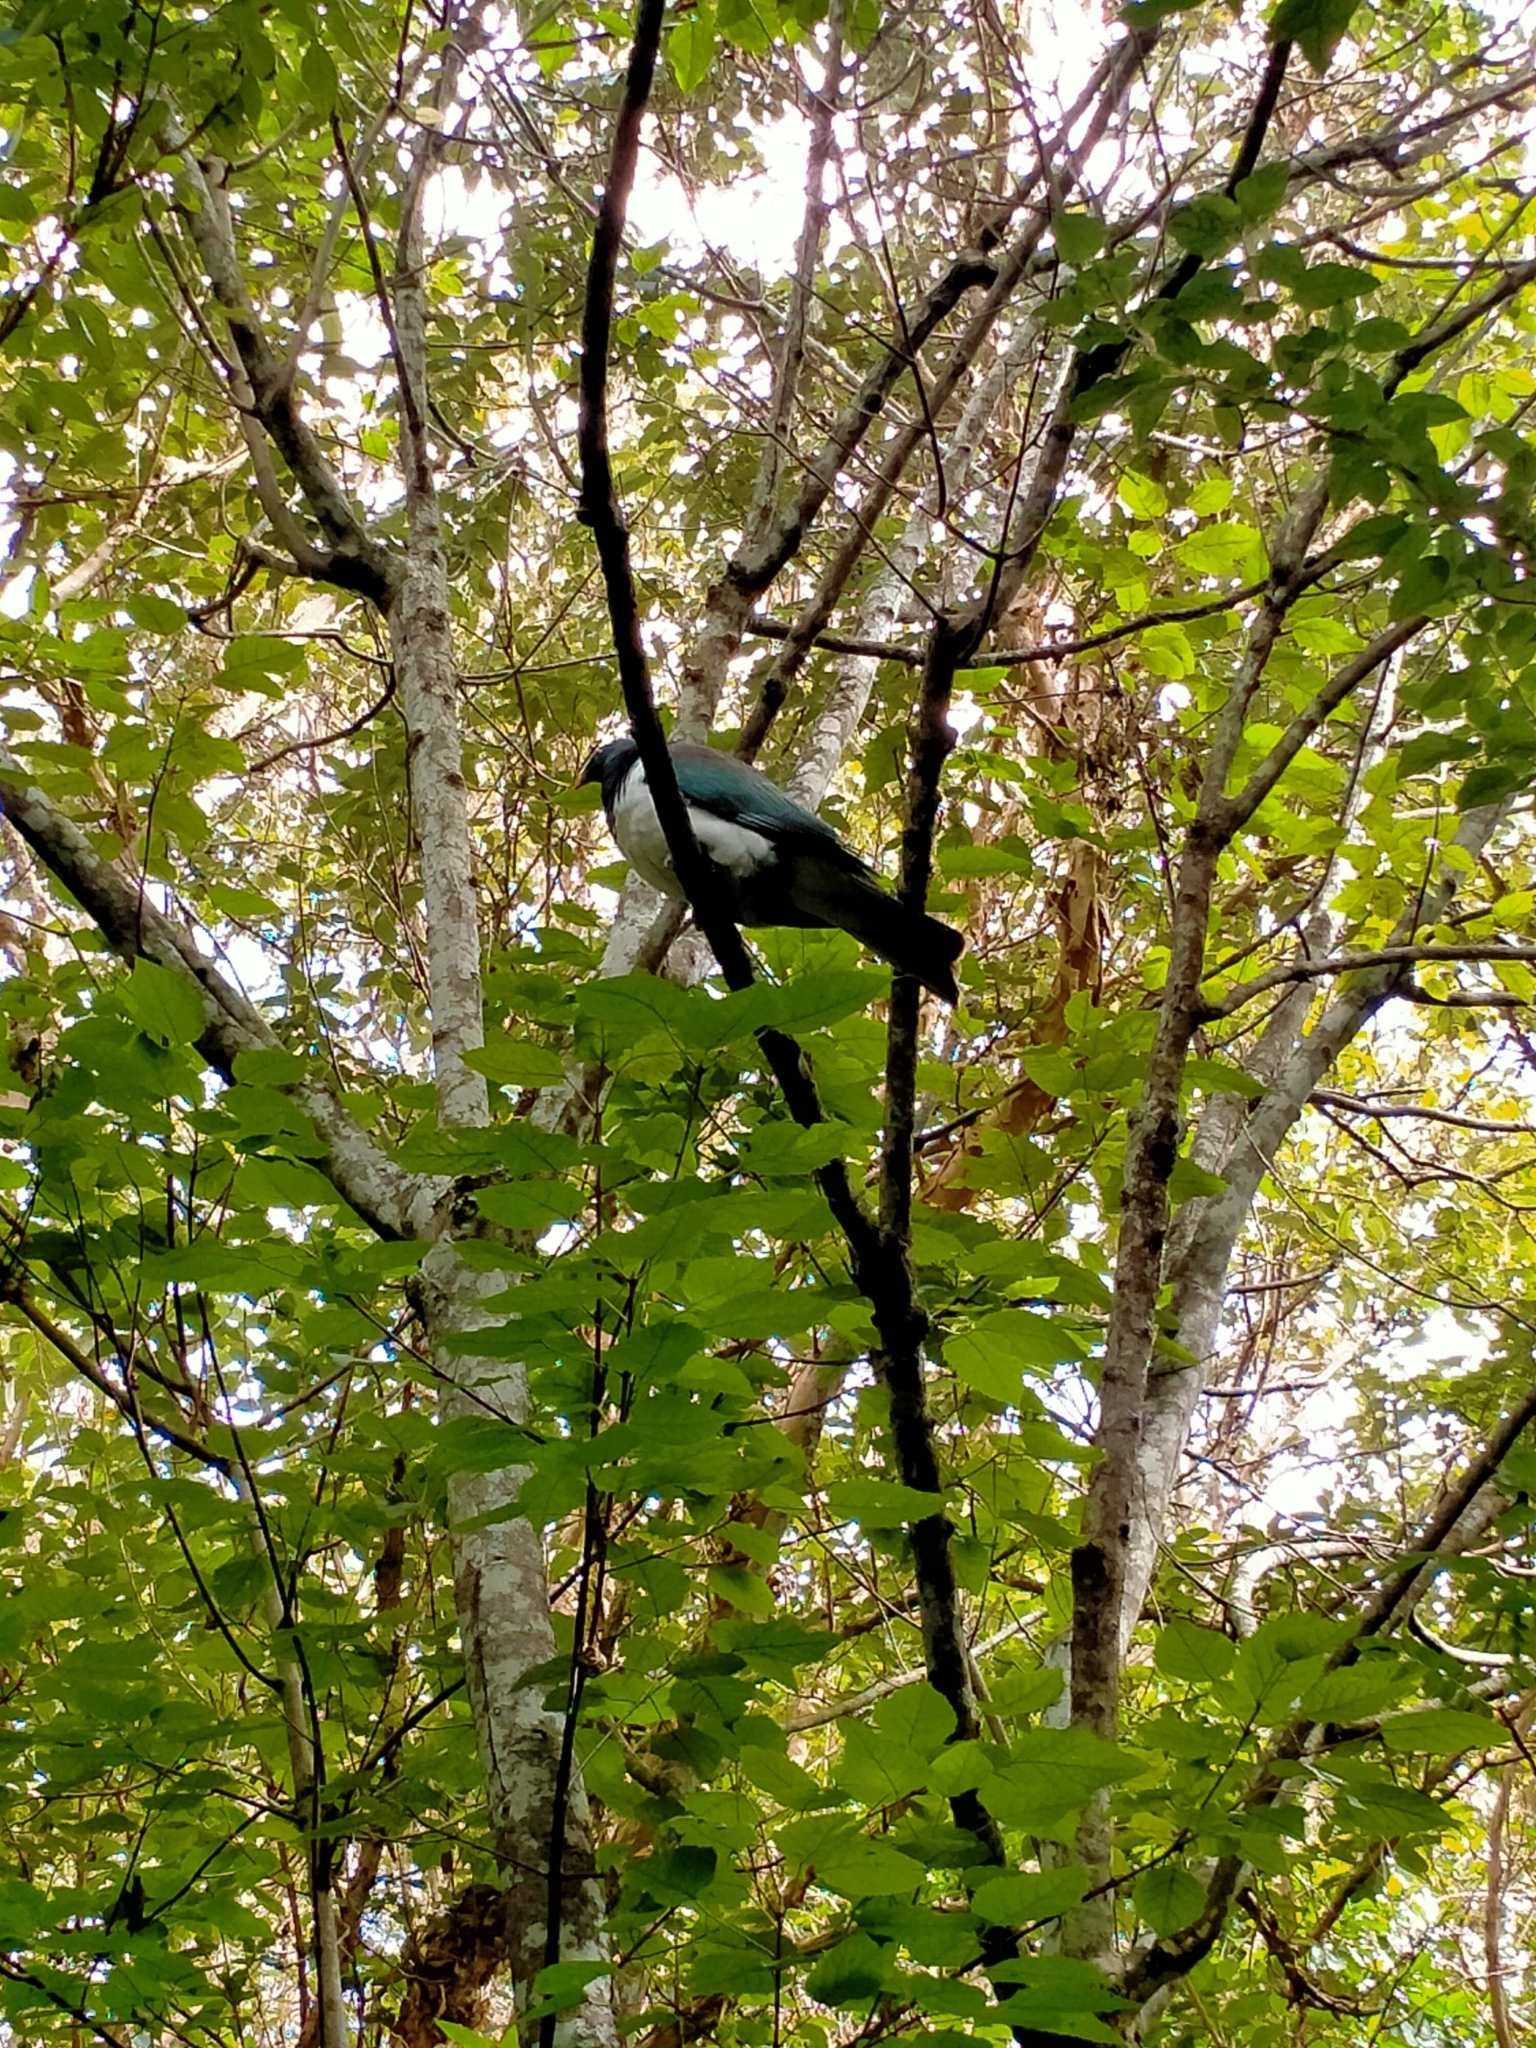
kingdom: Animalia
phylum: Chordata
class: Aves
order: Columbiformes
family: Columbidae
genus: Hemiphaga
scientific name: Hemiphaga novaeseelandiae
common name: New zealand pigeon
